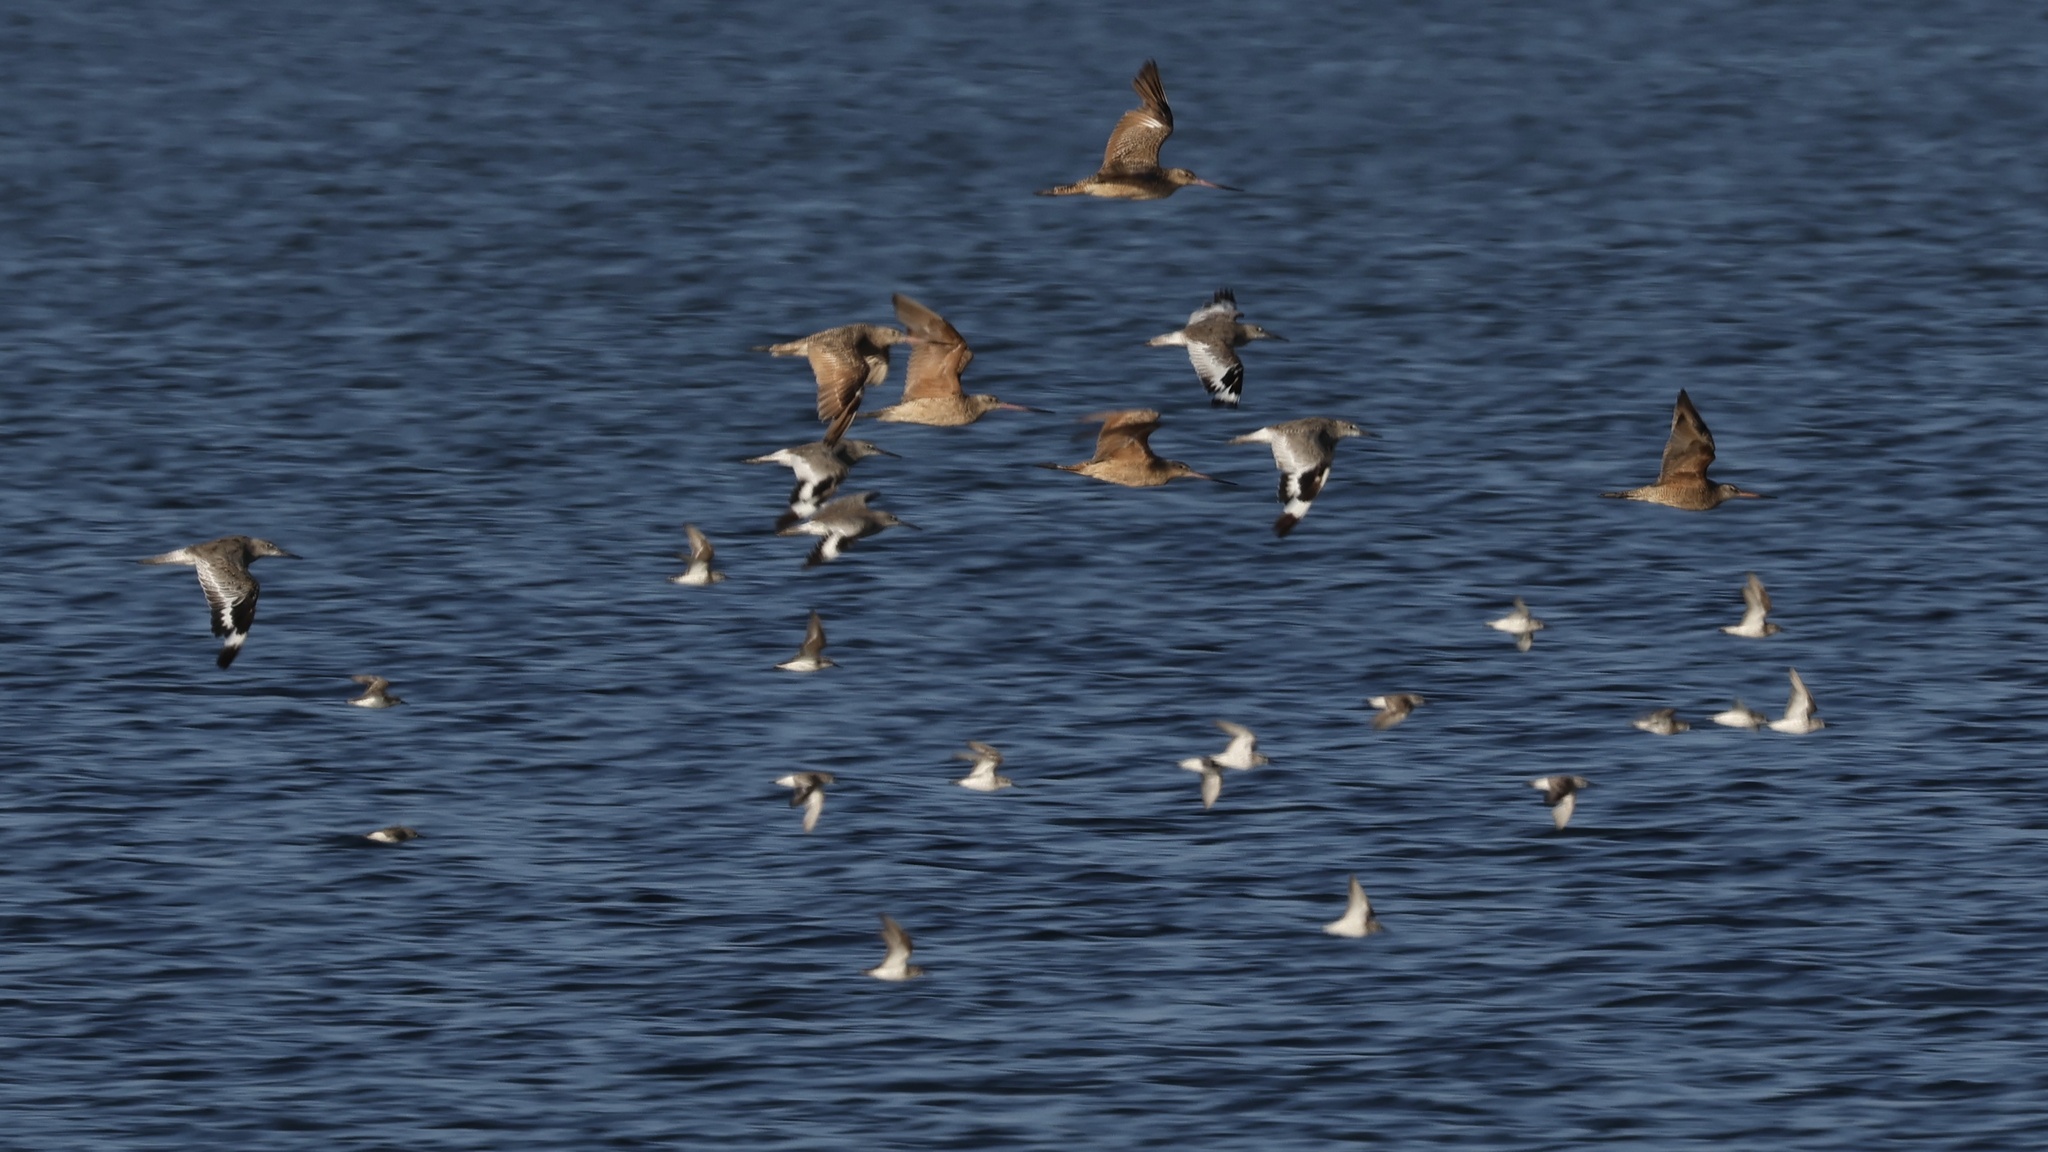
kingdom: Animalia
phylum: Chordata
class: Aves
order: Charadriiformes
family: Scolopacidae
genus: Limosa
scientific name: Limosa fedoa
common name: Marbled godwit
